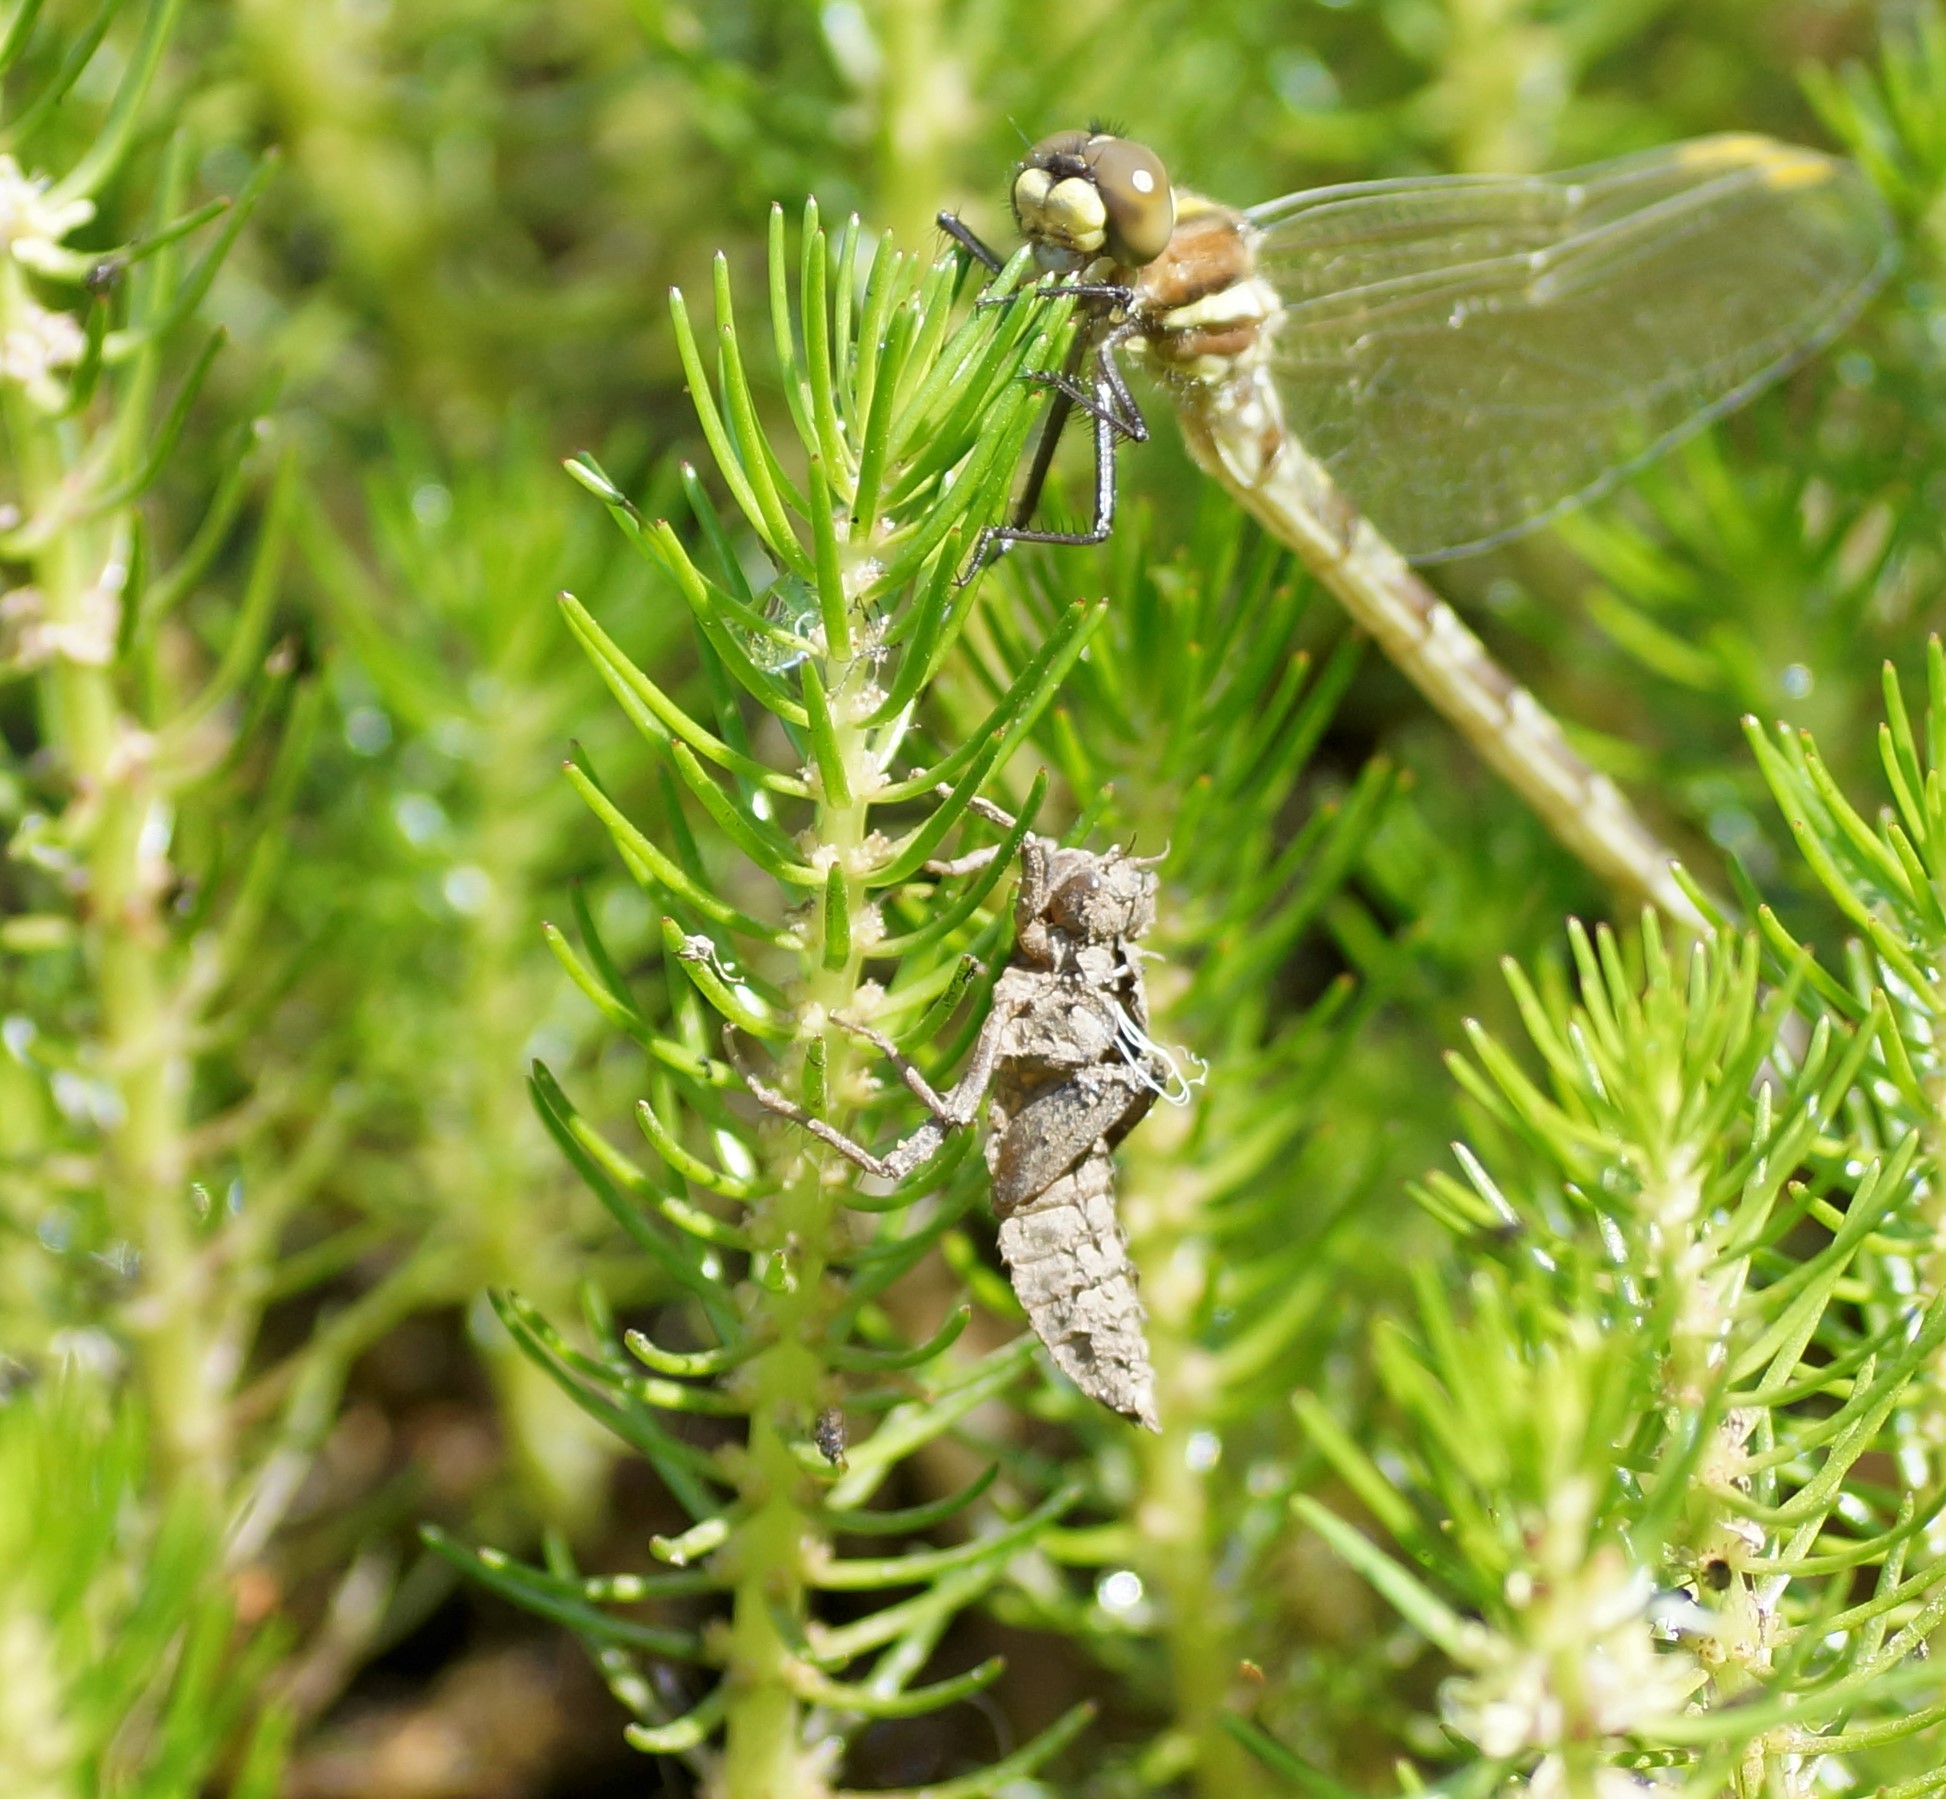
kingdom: Animalia
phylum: Arthropoda
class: Insecta
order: Odonata
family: Synthemistidae
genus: Synthemis
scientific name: Synthemis eustalacta
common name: Swamp tigertail
